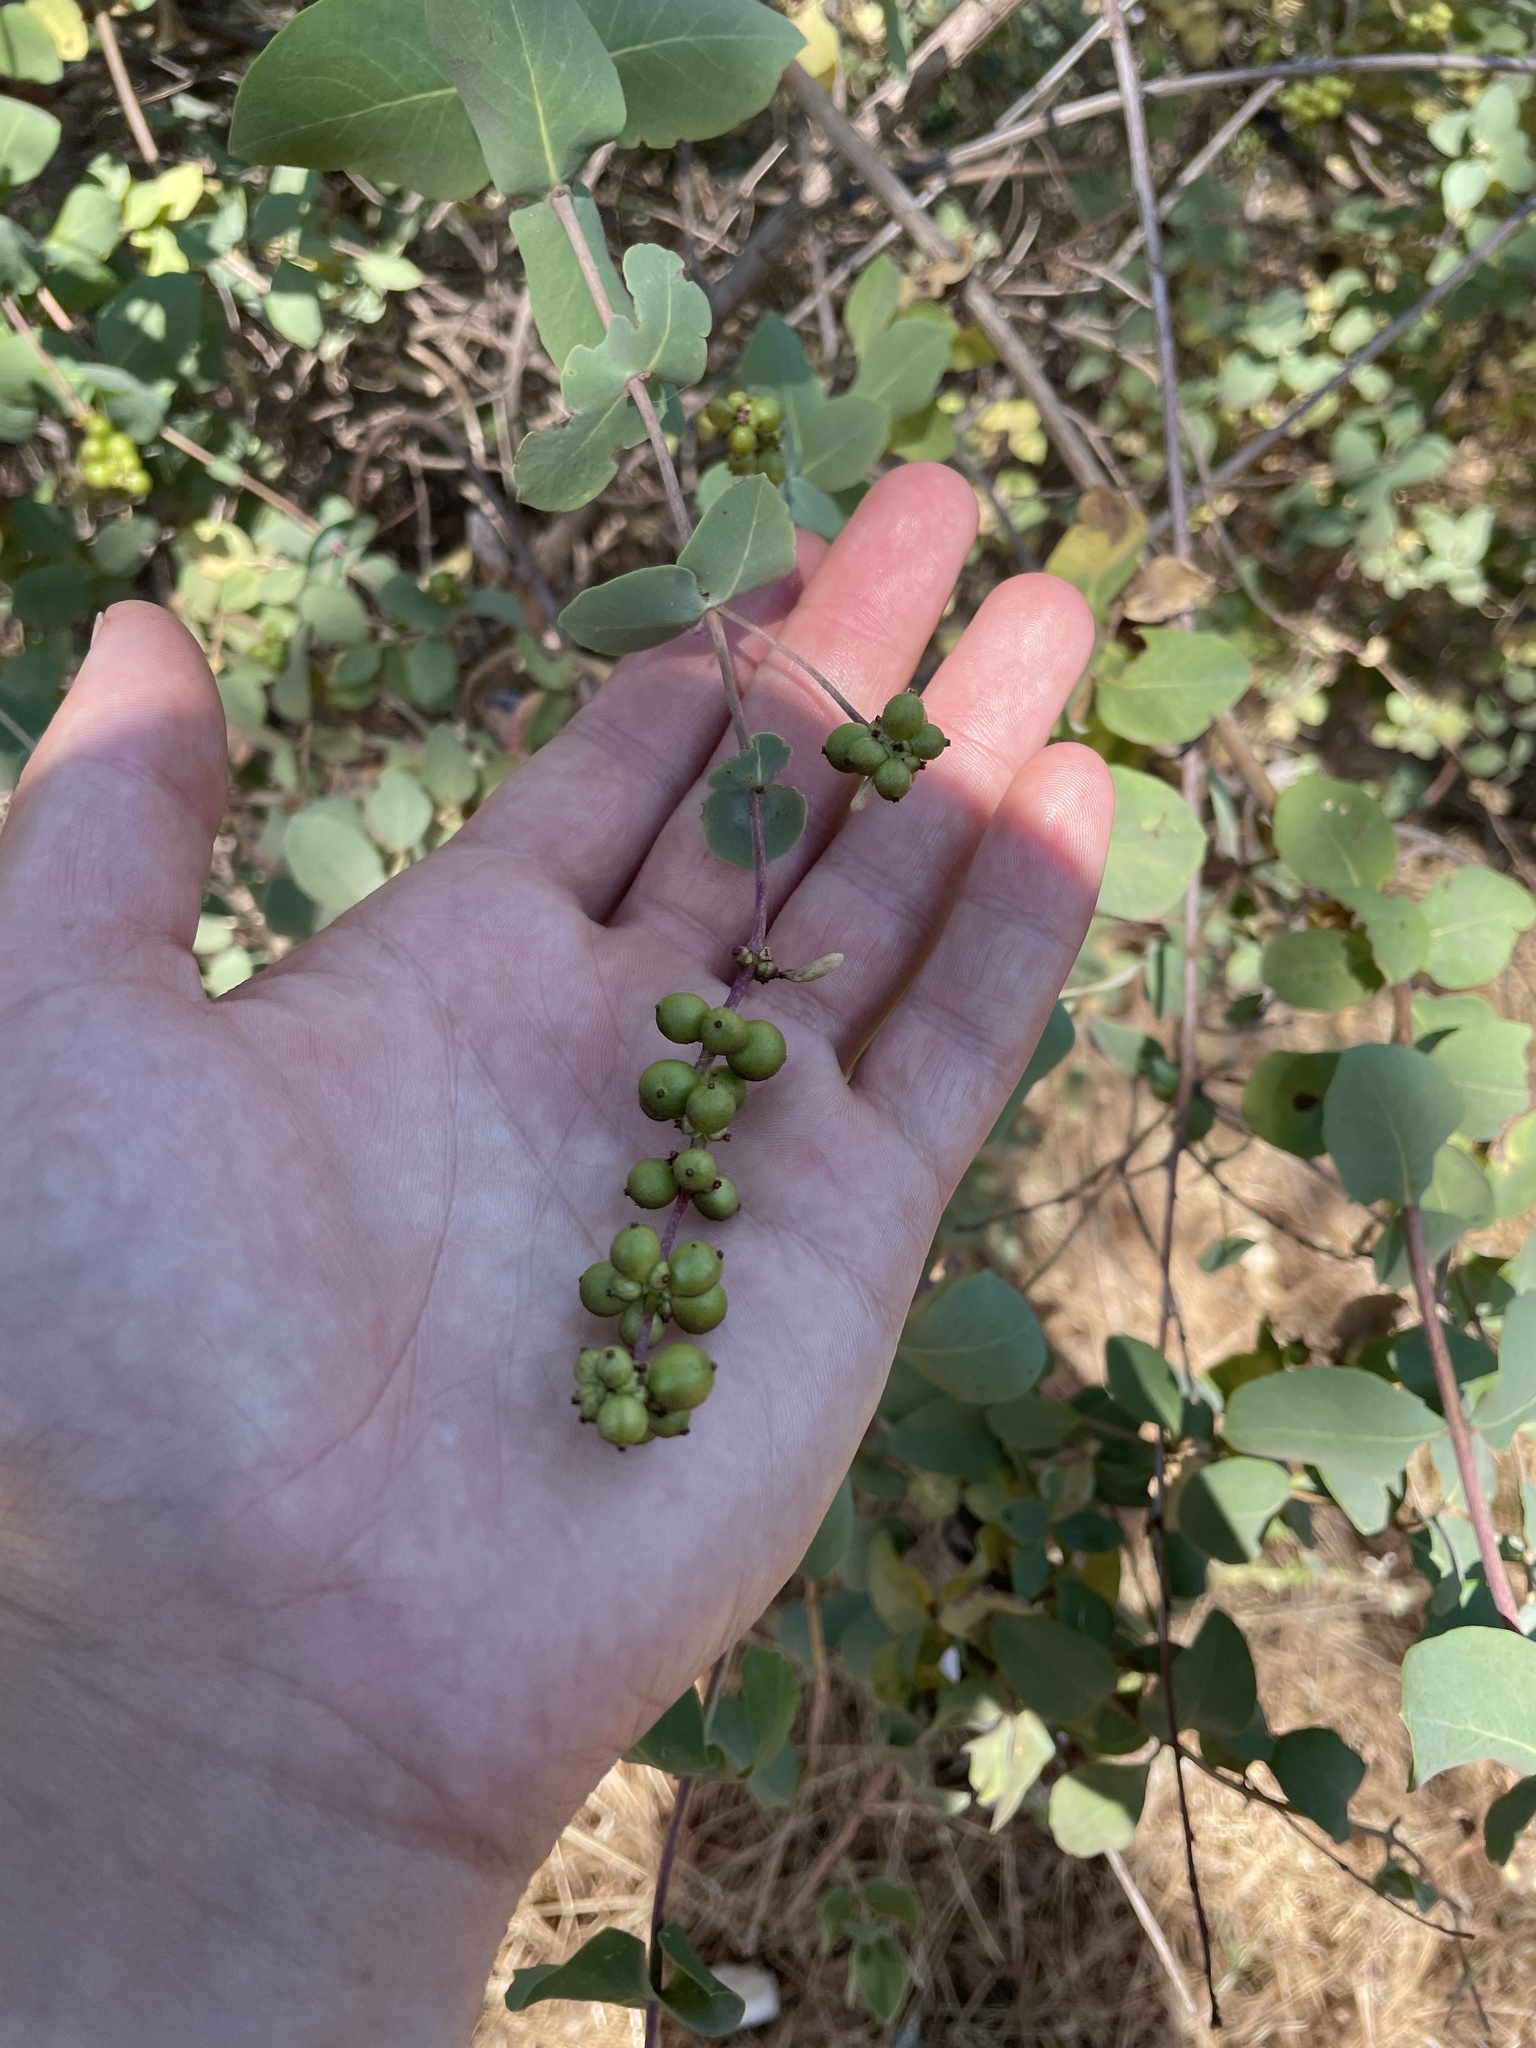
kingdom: Plantae
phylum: Tracheophyta
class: Magnoliopsida
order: Dipsacales
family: Caprifoliaceae
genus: Lonicera
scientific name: Lonicera interrupta
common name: Chaparral honeysuckle
